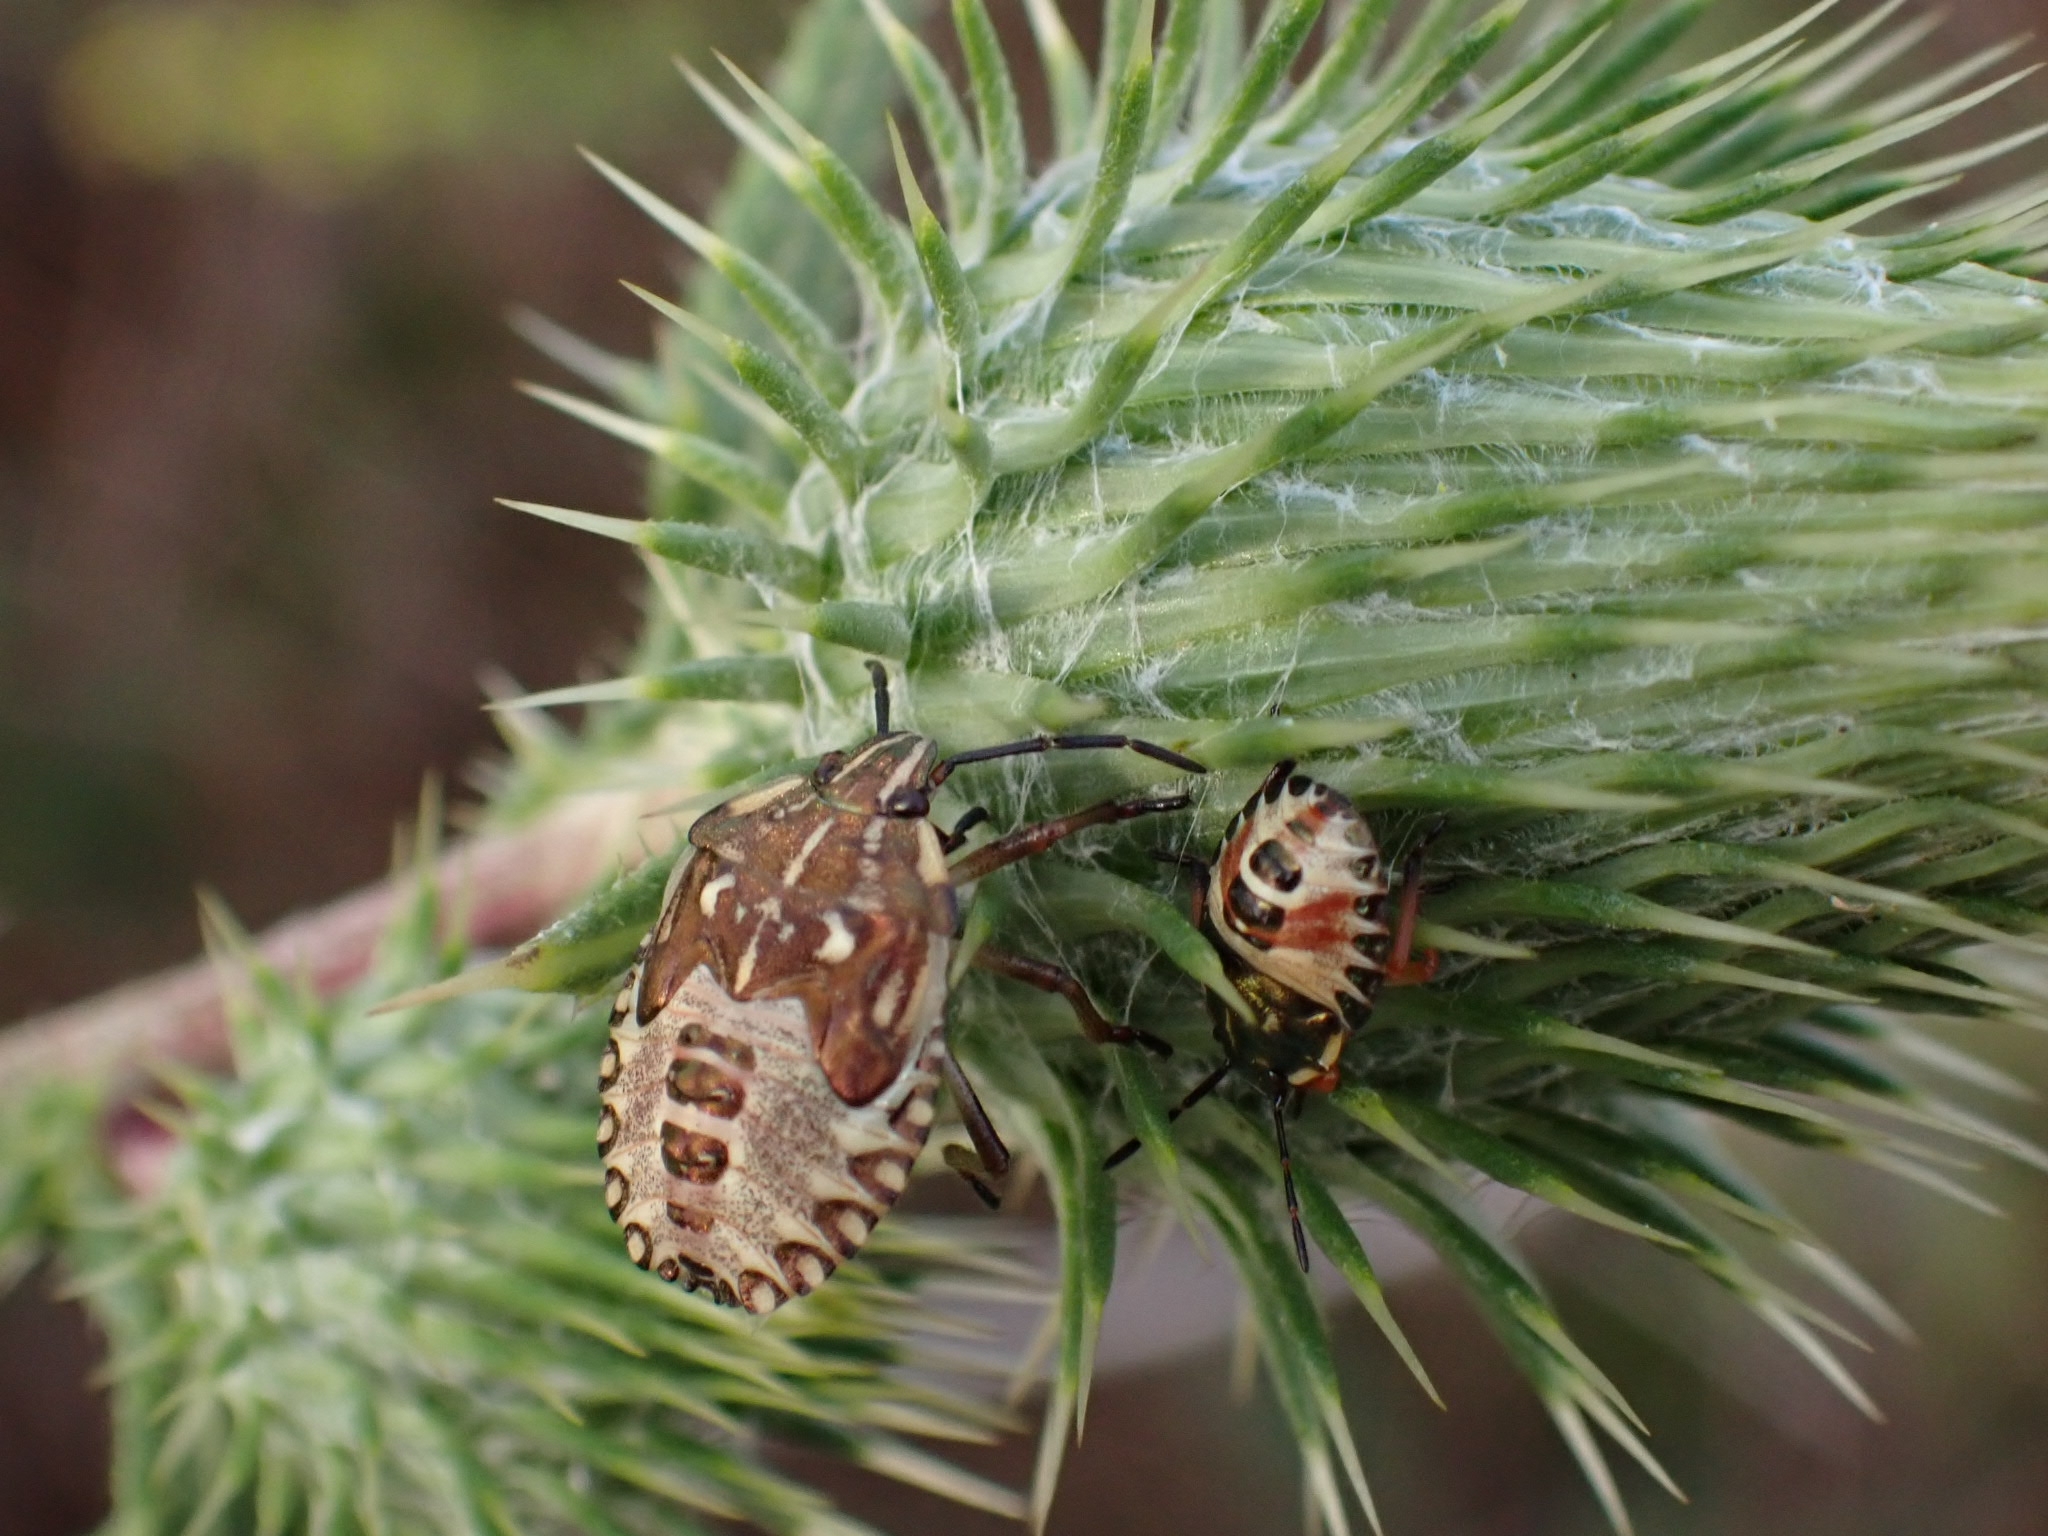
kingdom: Animalia
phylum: Arthropoda
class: Insecta
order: Hemiptera
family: Pentatomidae
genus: Carpocoris
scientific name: Carpocoris mediterraneus
